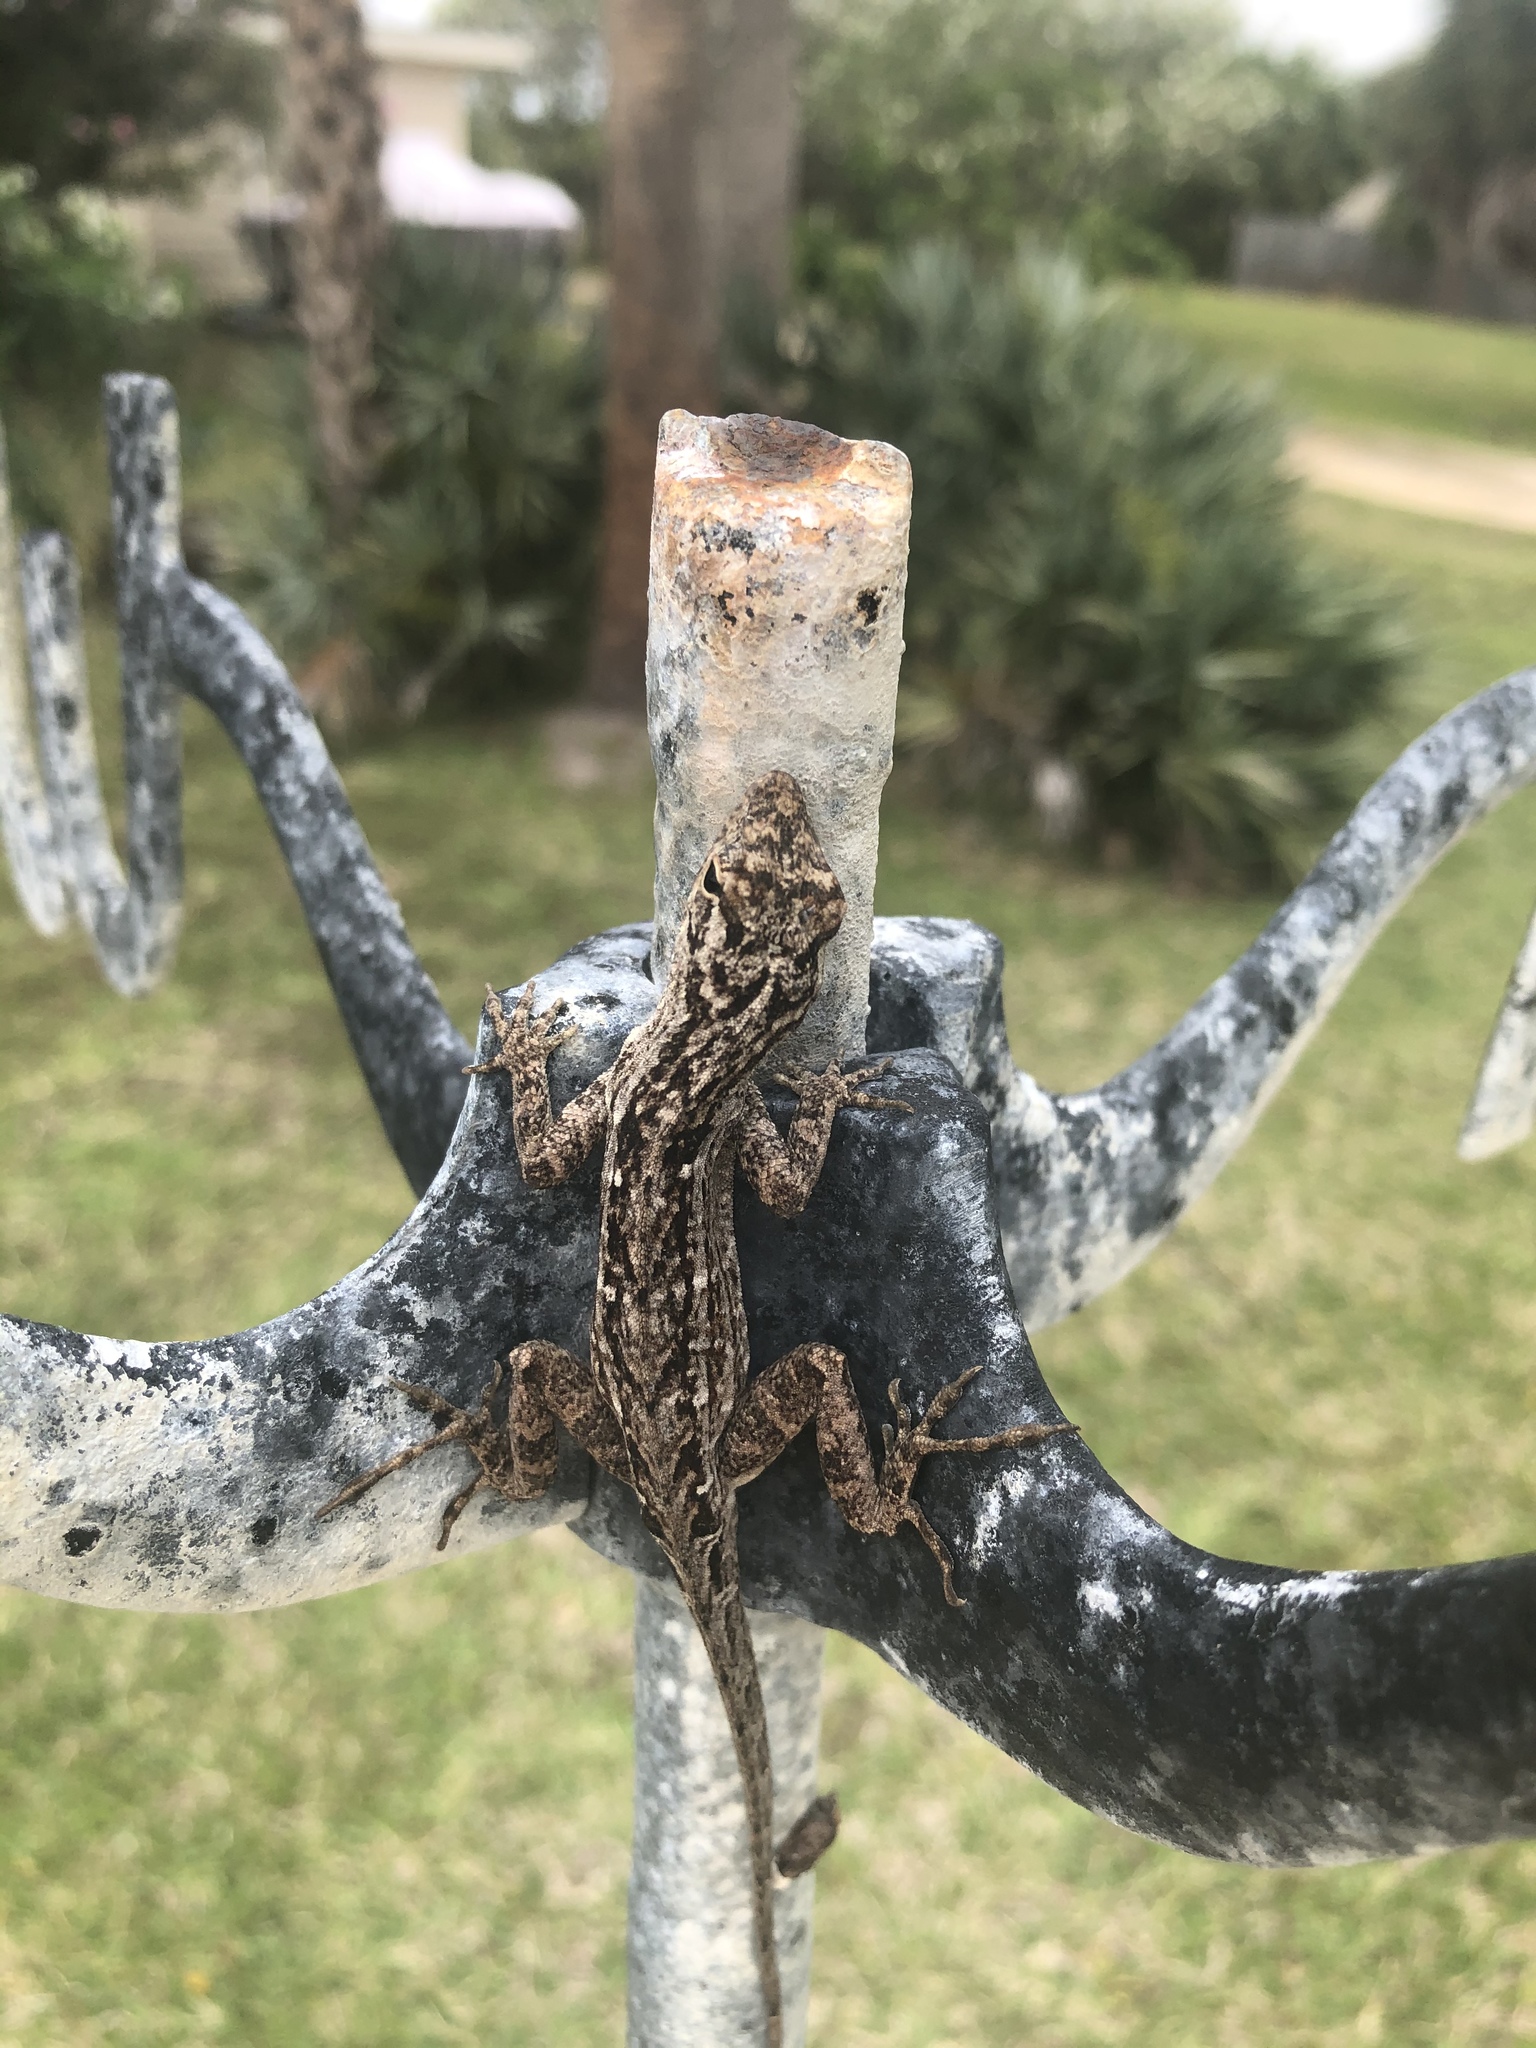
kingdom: Animalia
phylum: Chordata
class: Squamata
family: Dactyloidae
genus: Anolis
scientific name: Anolis sagrei
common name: Brown anole
